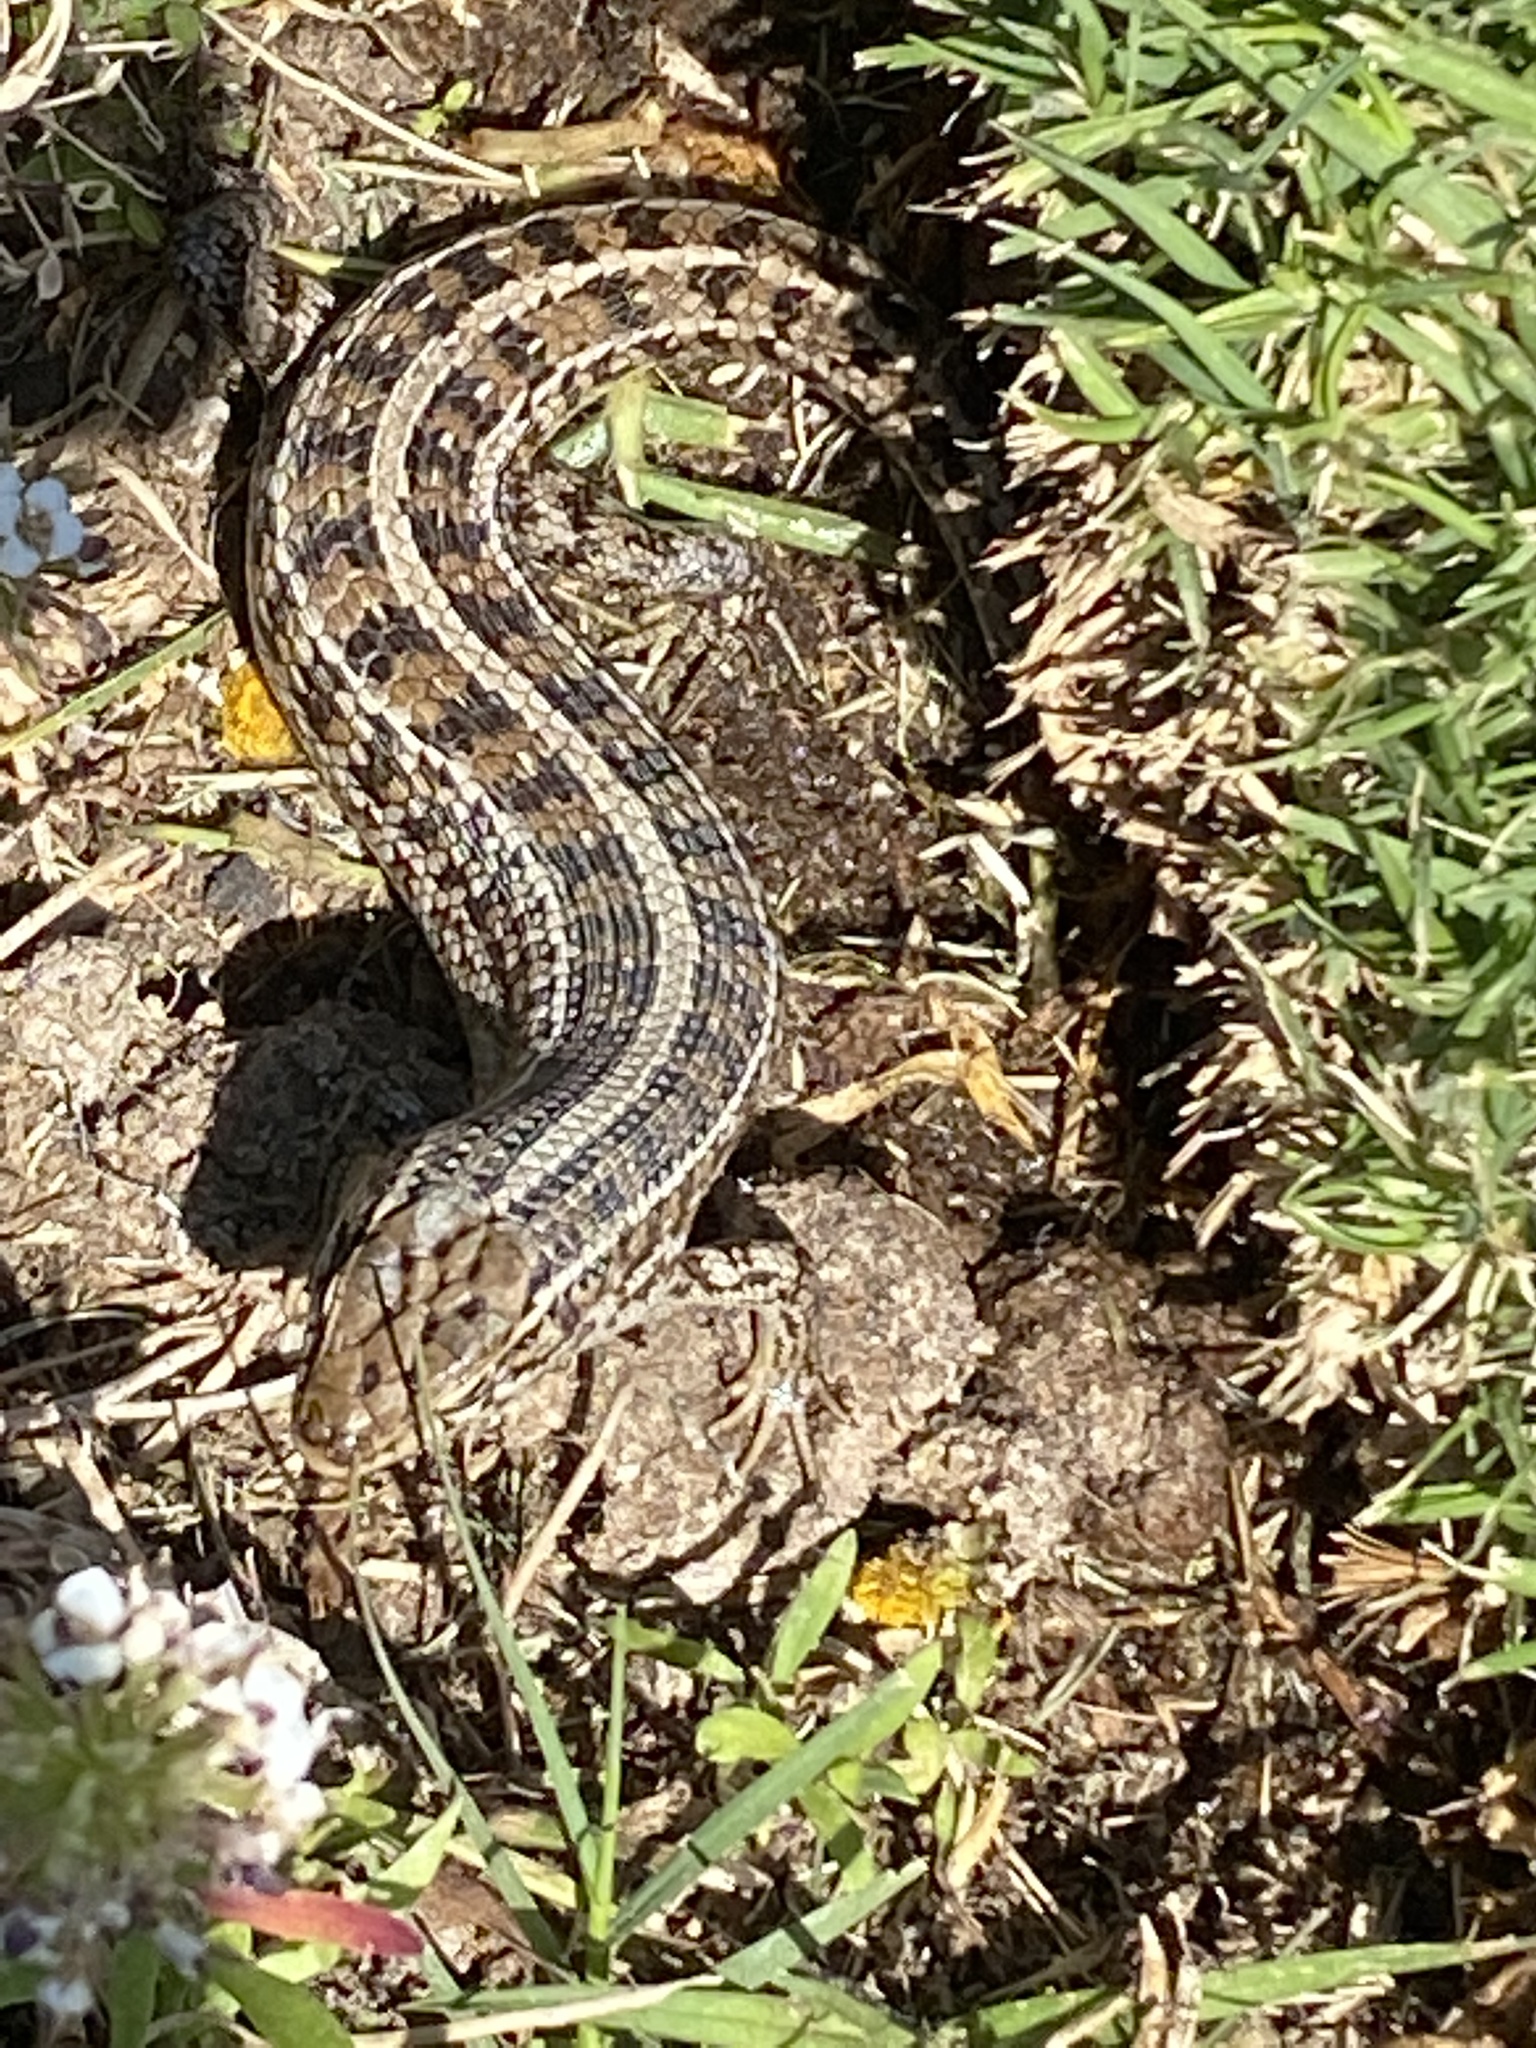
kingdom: Animalia
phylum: Chordata
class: Squamata
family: Scincidae
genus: Trachylepis
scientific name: Trachylepis capensis
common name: Cape skink
